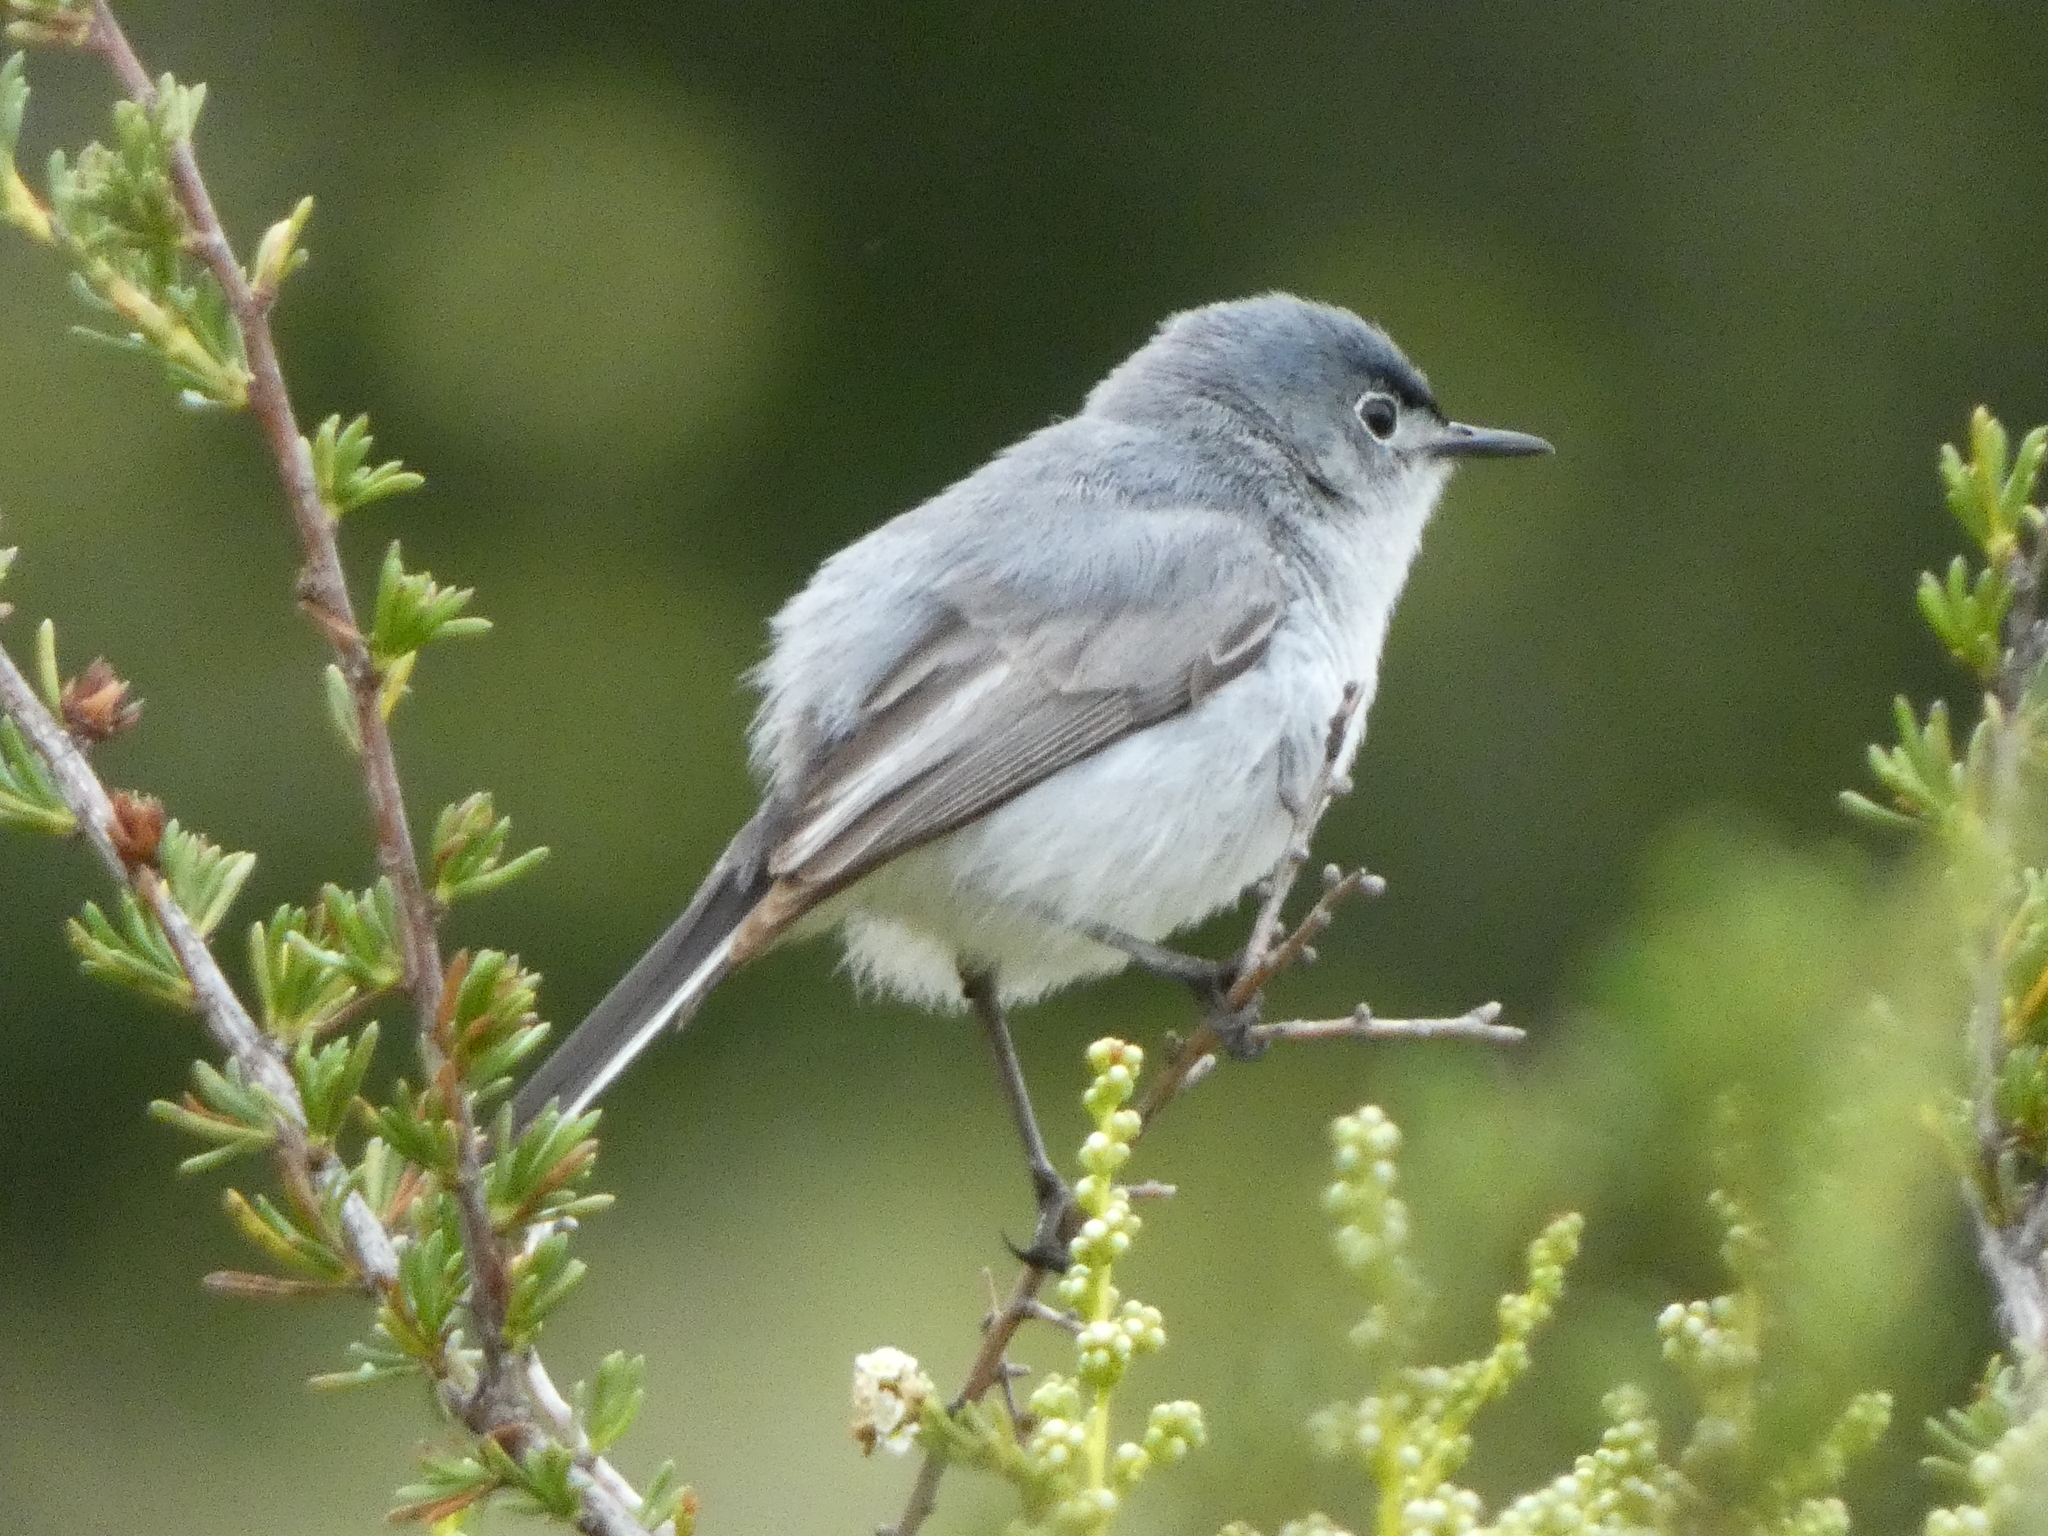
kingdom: Animalia
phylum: Chordata
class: Aves
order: Passeriformes
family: Polioptilidae
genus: Polioptila
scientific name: Polioptila caerulea
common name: Blue-gray gnatcatcher
